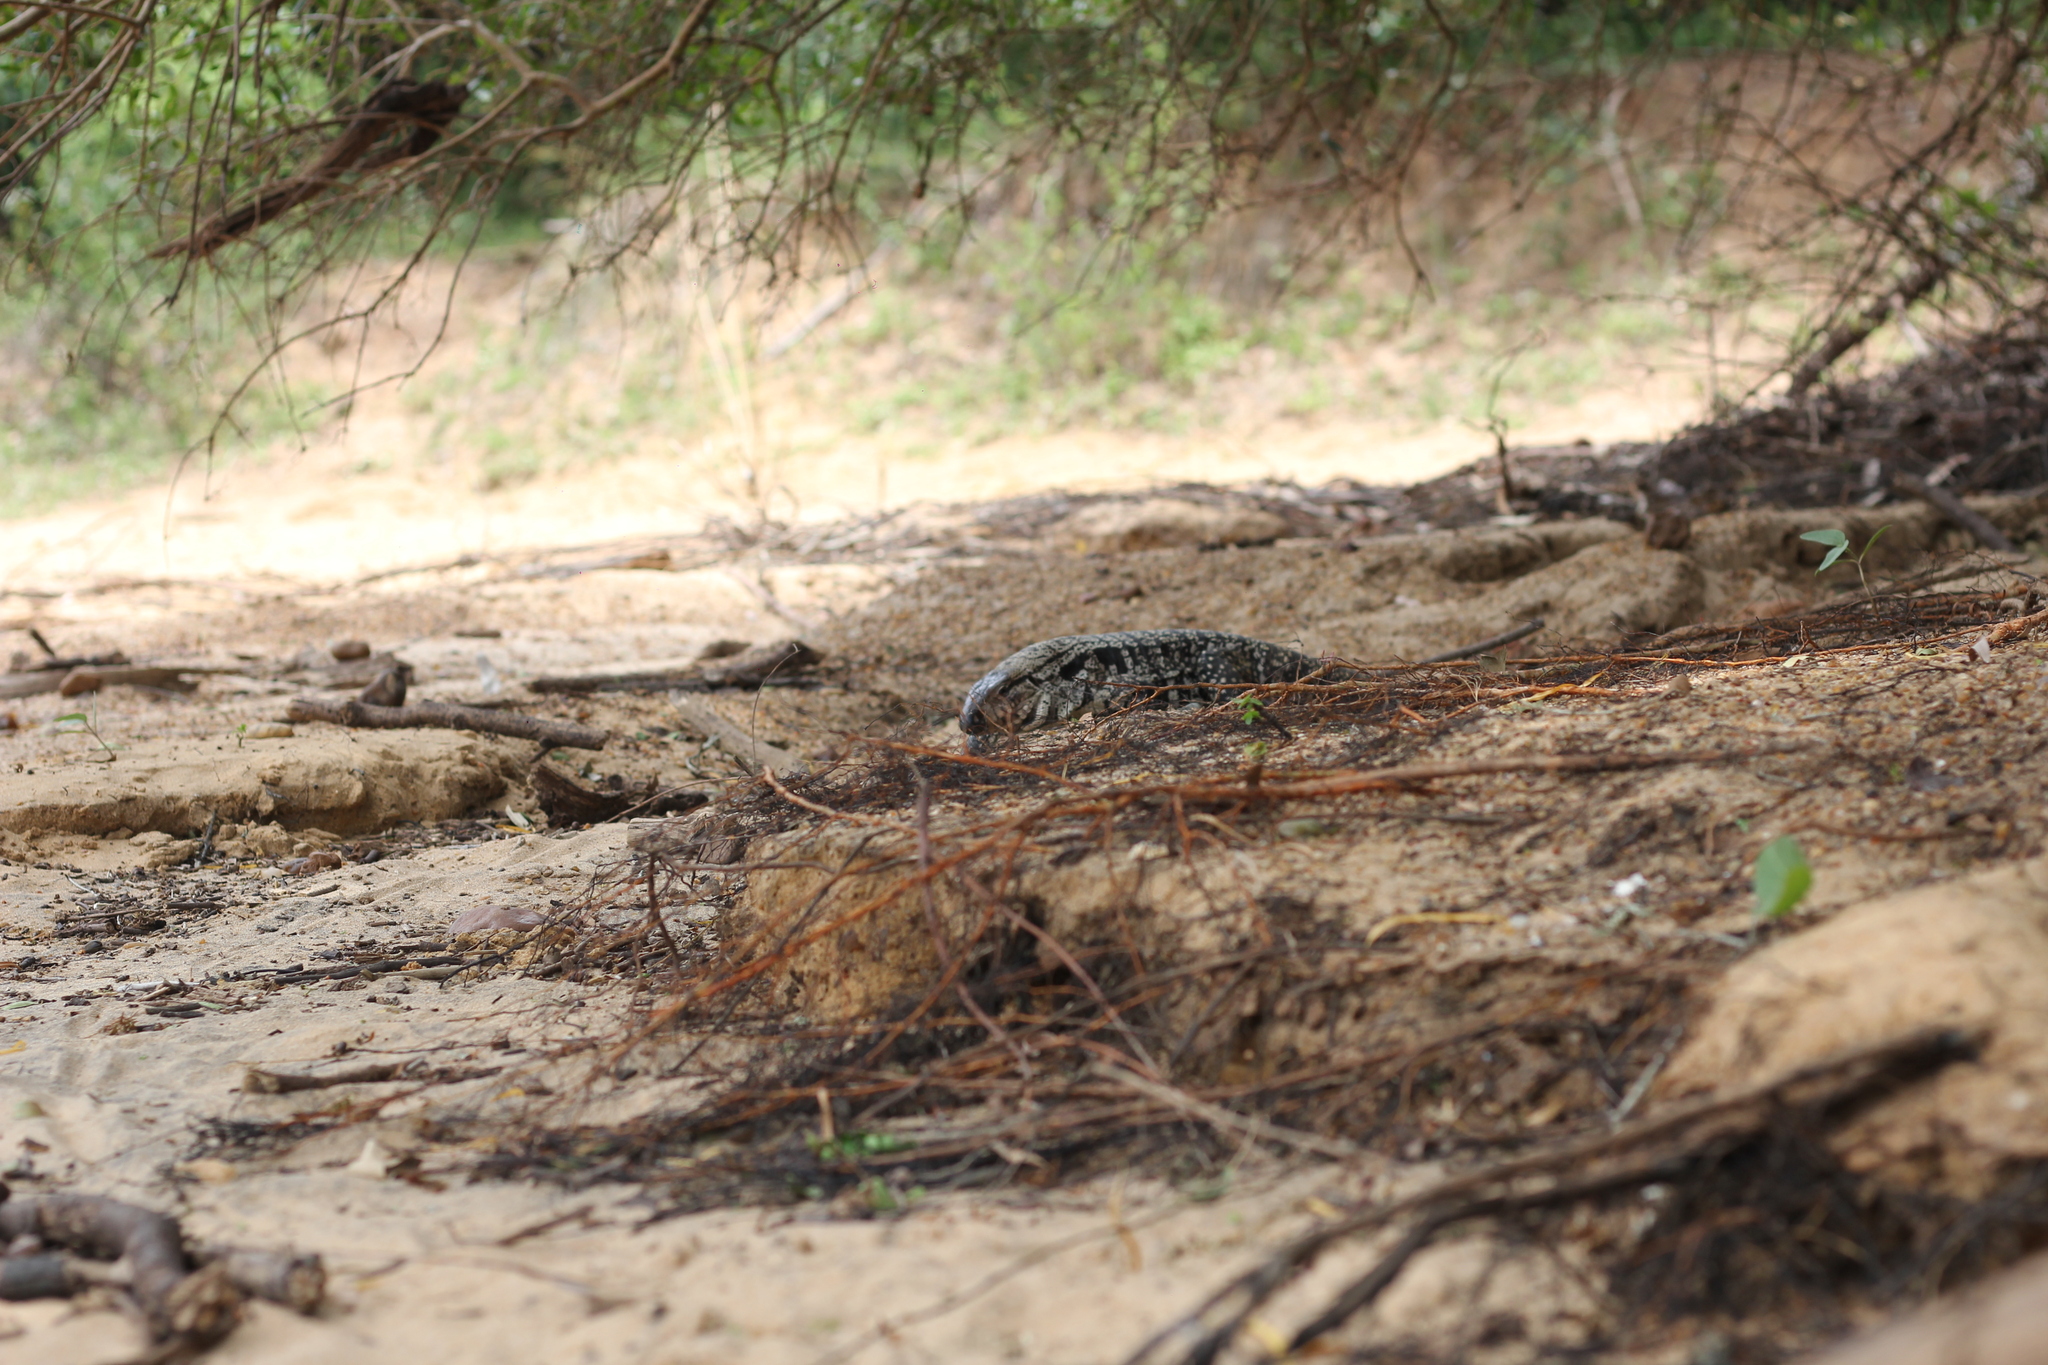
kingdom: Animalia
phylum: Chordata
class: Squamata
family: Teiidae
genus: Salvator
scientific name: Salvator merianae
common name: Argentine black and white tegu
